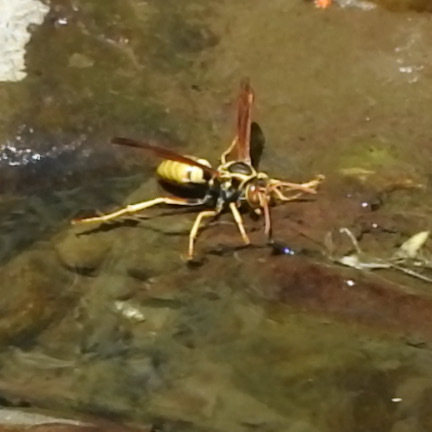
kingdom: Animalia
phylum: Arthropoda
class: Insecta
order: Hymenoptera
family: Eumenidae
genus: Polistes
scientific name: Polistes aurifer
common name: Paper wasp
